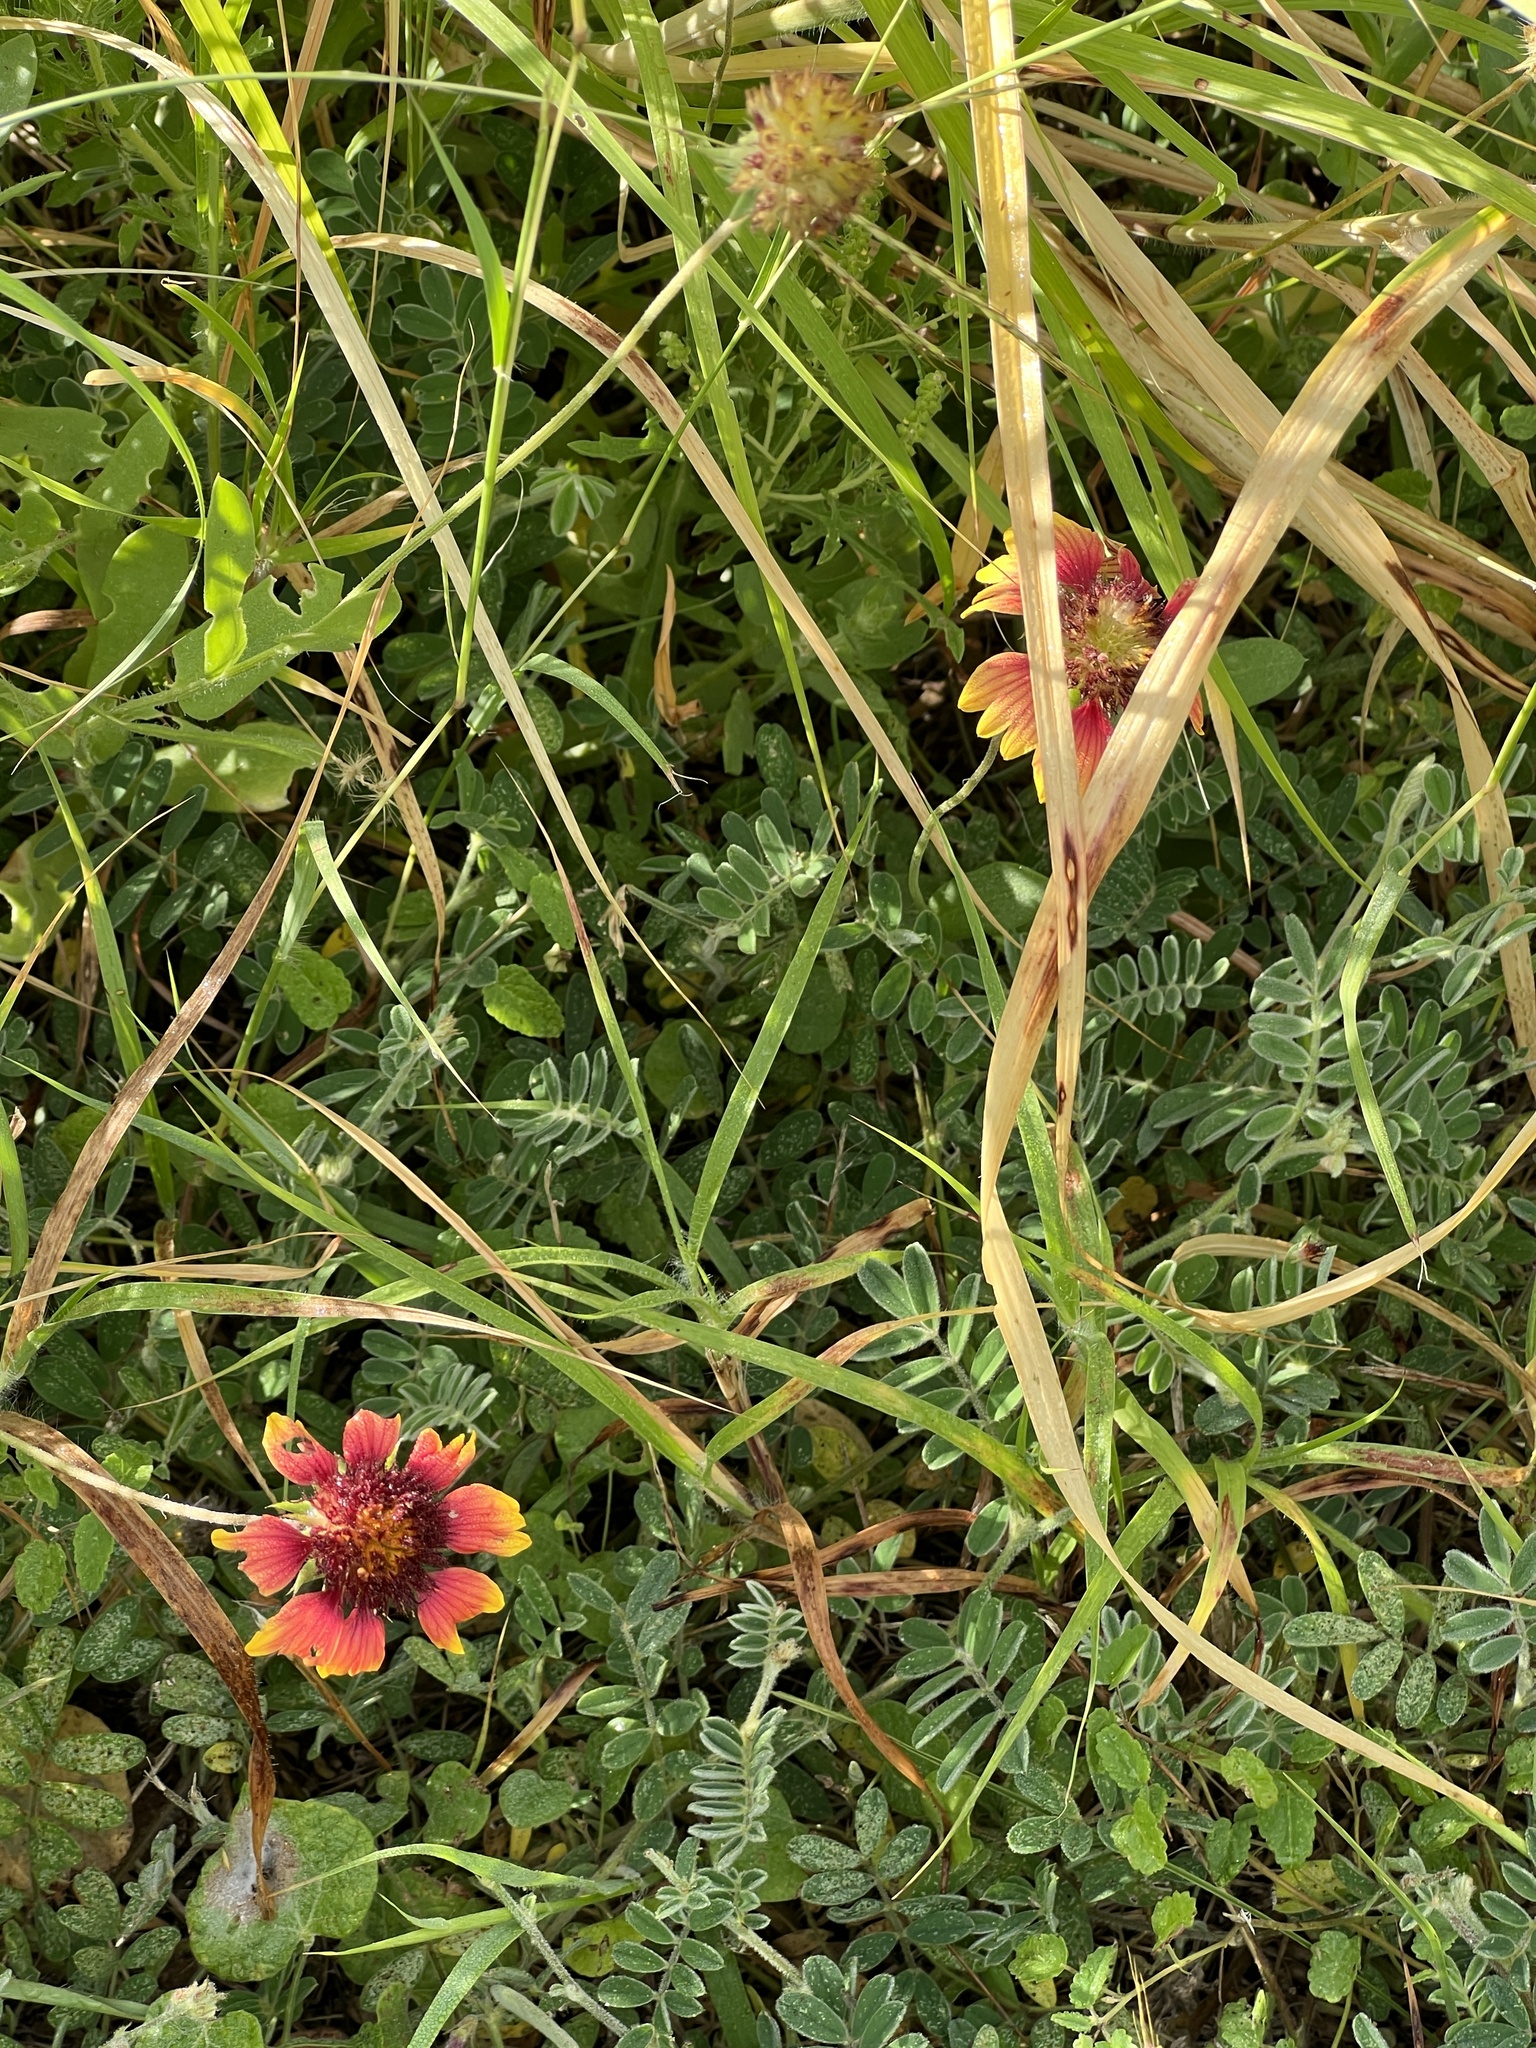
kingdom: Plantae
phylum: Tracheophyta
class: Magnoliopsida
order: Asterales
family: Asteraceae
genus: Gaillardia
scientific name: Gaillardia pulchella
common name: Firewheel
